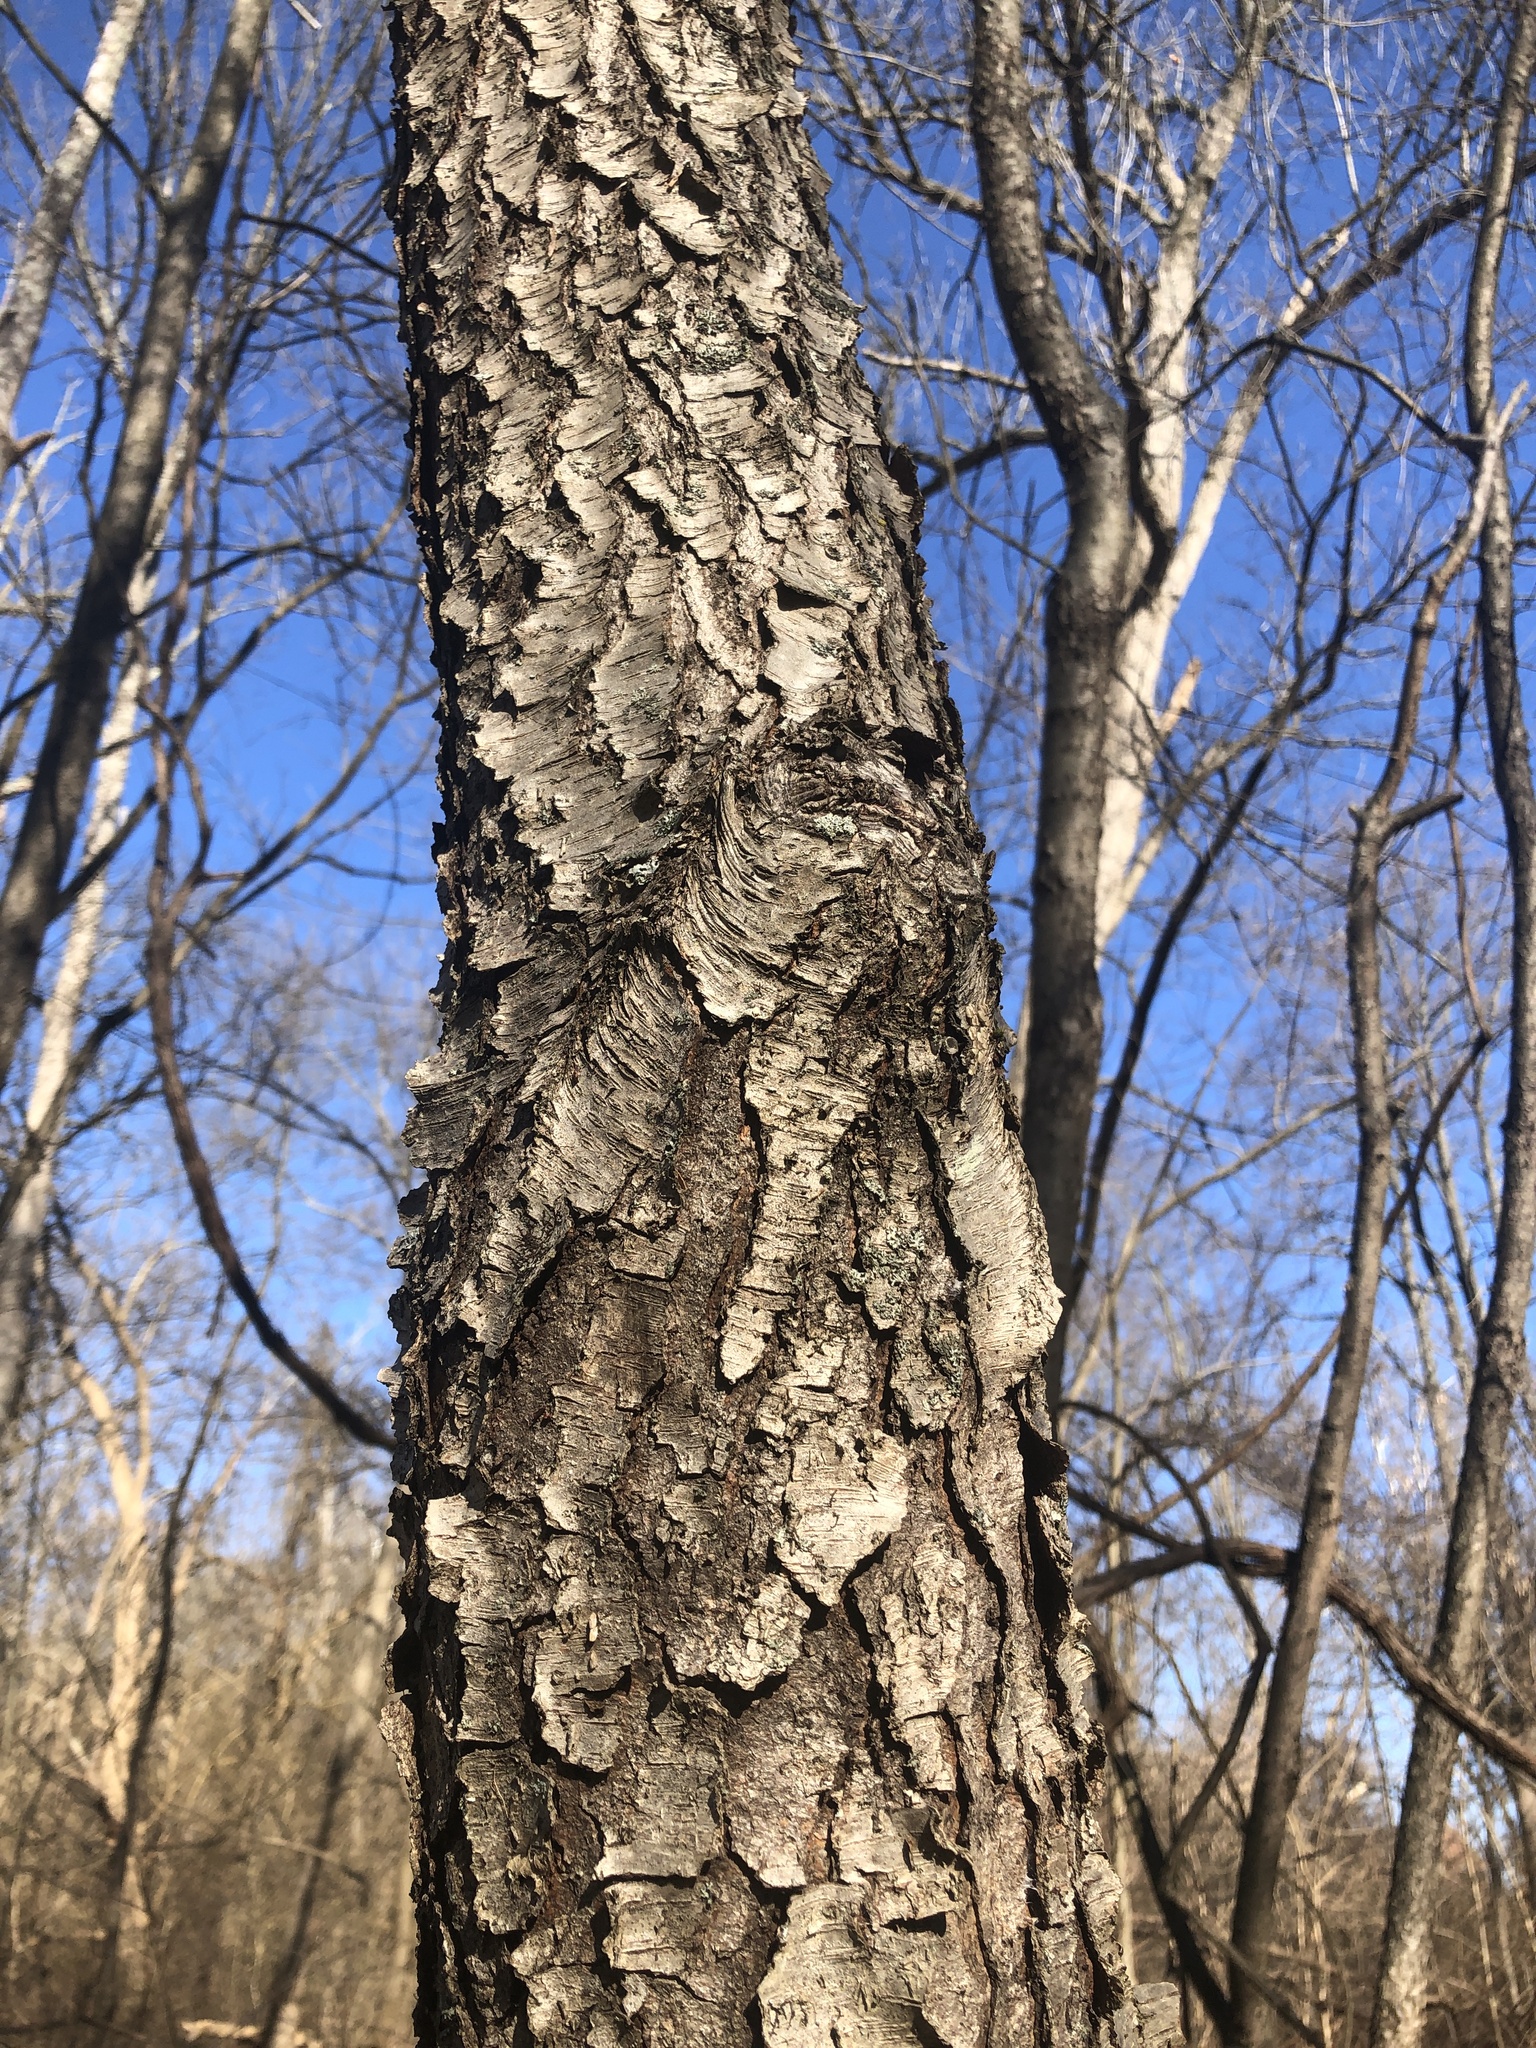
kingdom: Plantae
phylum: Tracheophyta
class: Magnoliopsida
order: Rosales
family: Rosaceae
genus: Prunus
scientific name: Prunus serotina
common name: Black cherry
